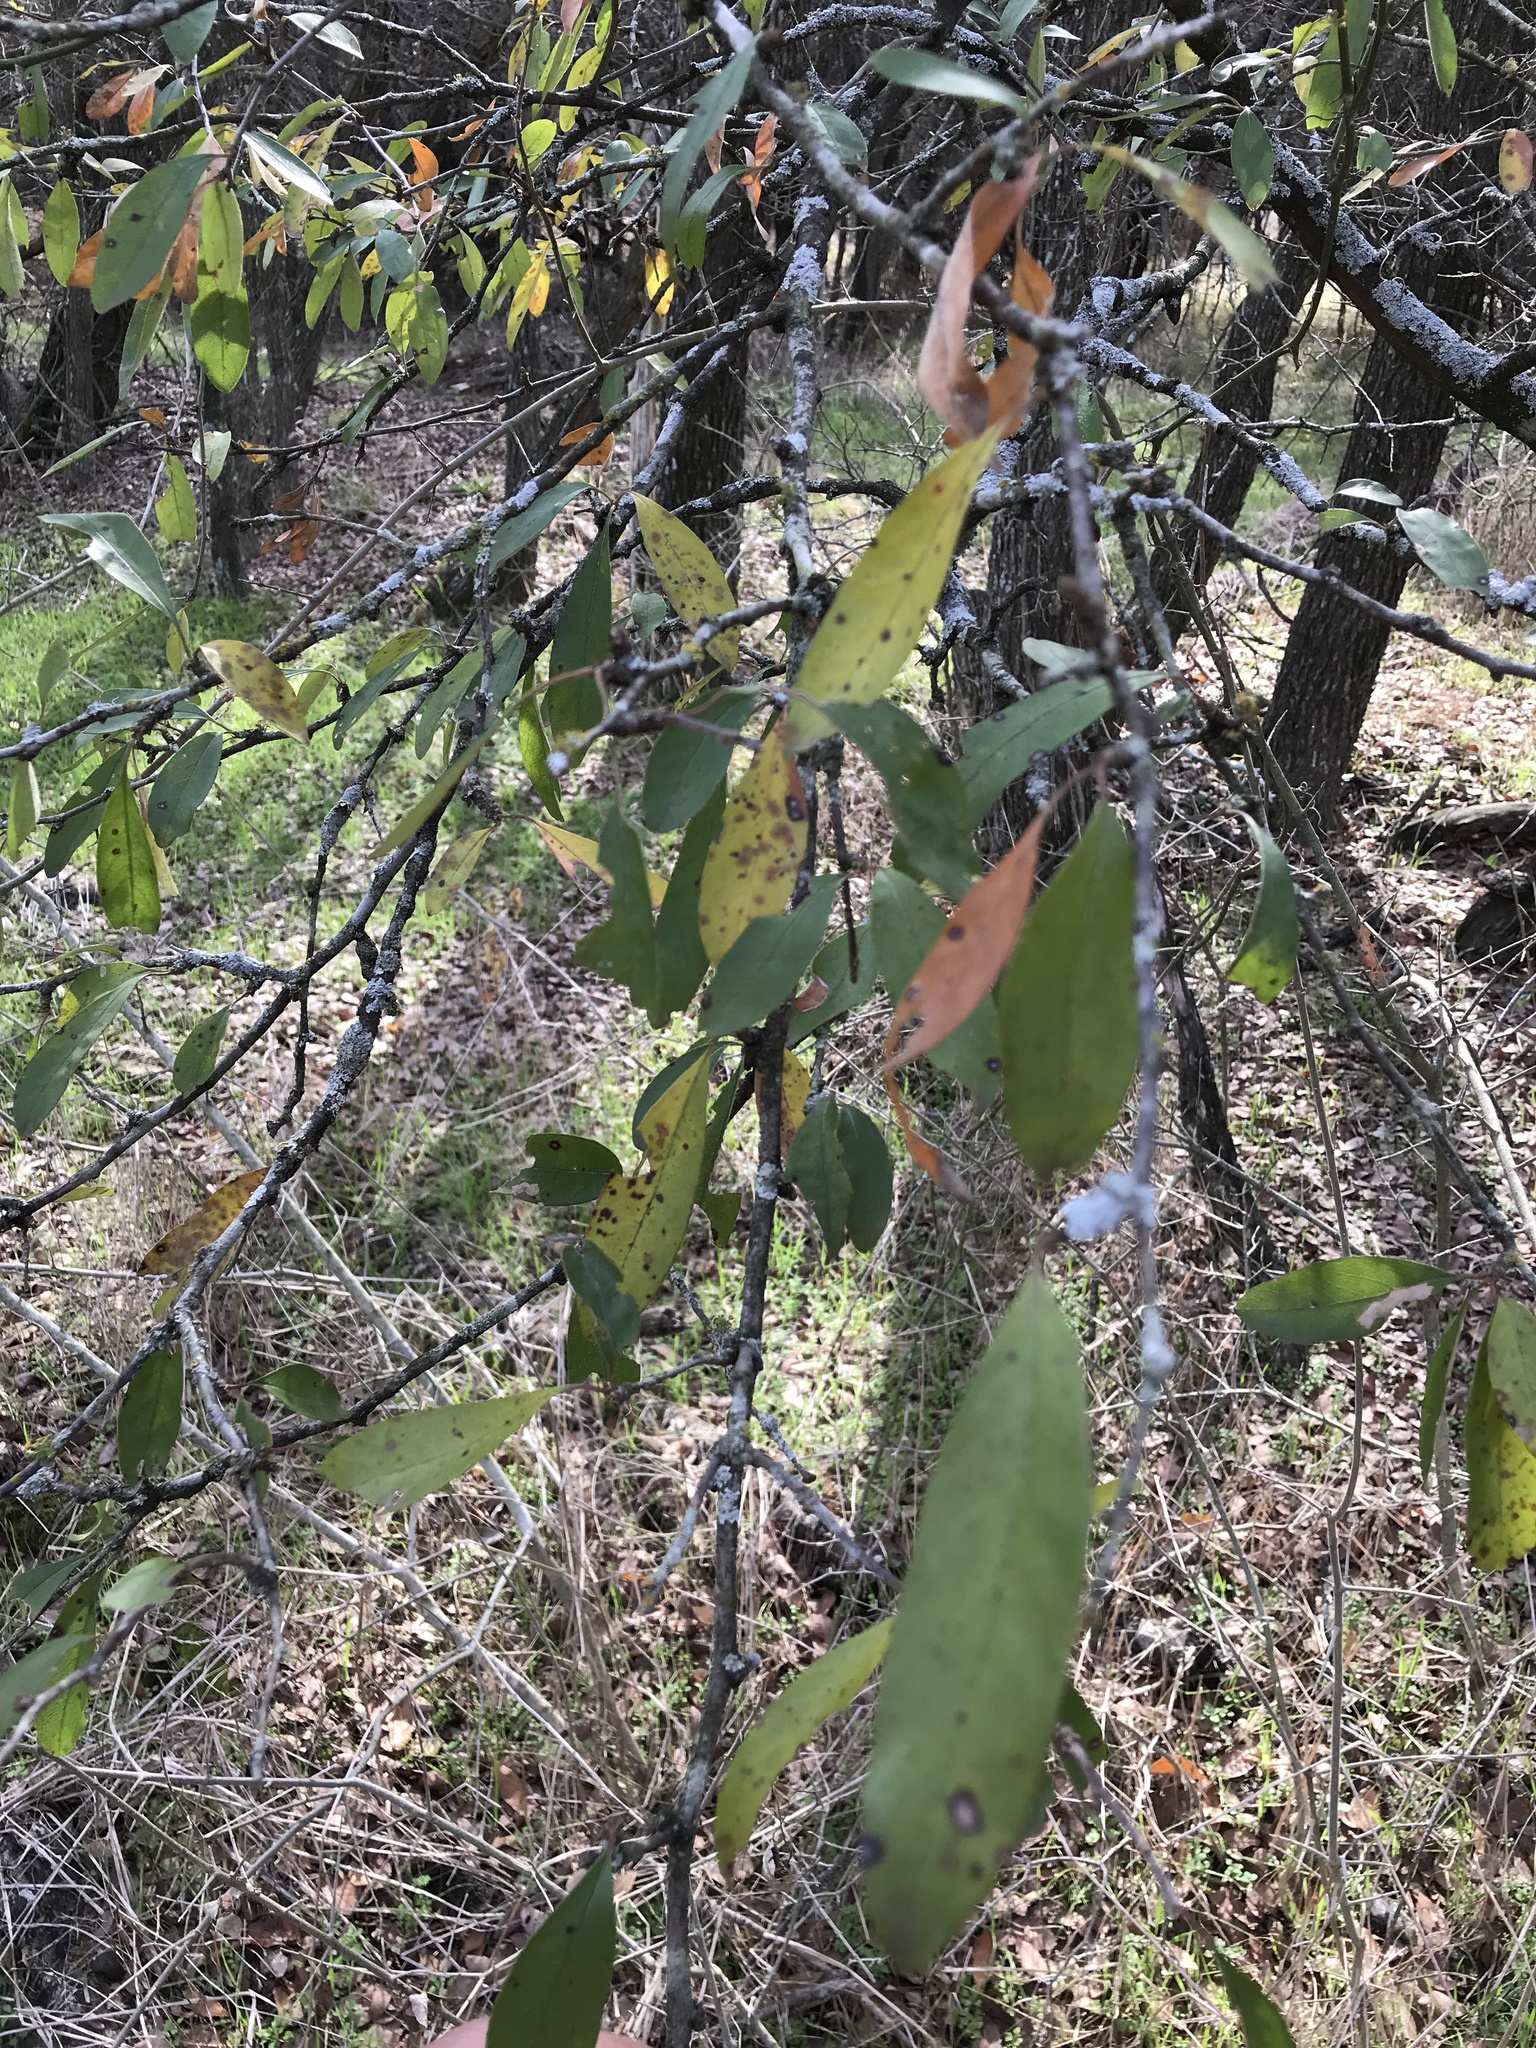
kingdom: Plantae
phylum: Tracheophyta
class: Magnoliopsida
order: Ericales
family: Sapotaceae
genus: Sideroxylon
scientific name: Sideroxylon lanuginosum
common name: Chittamwood
